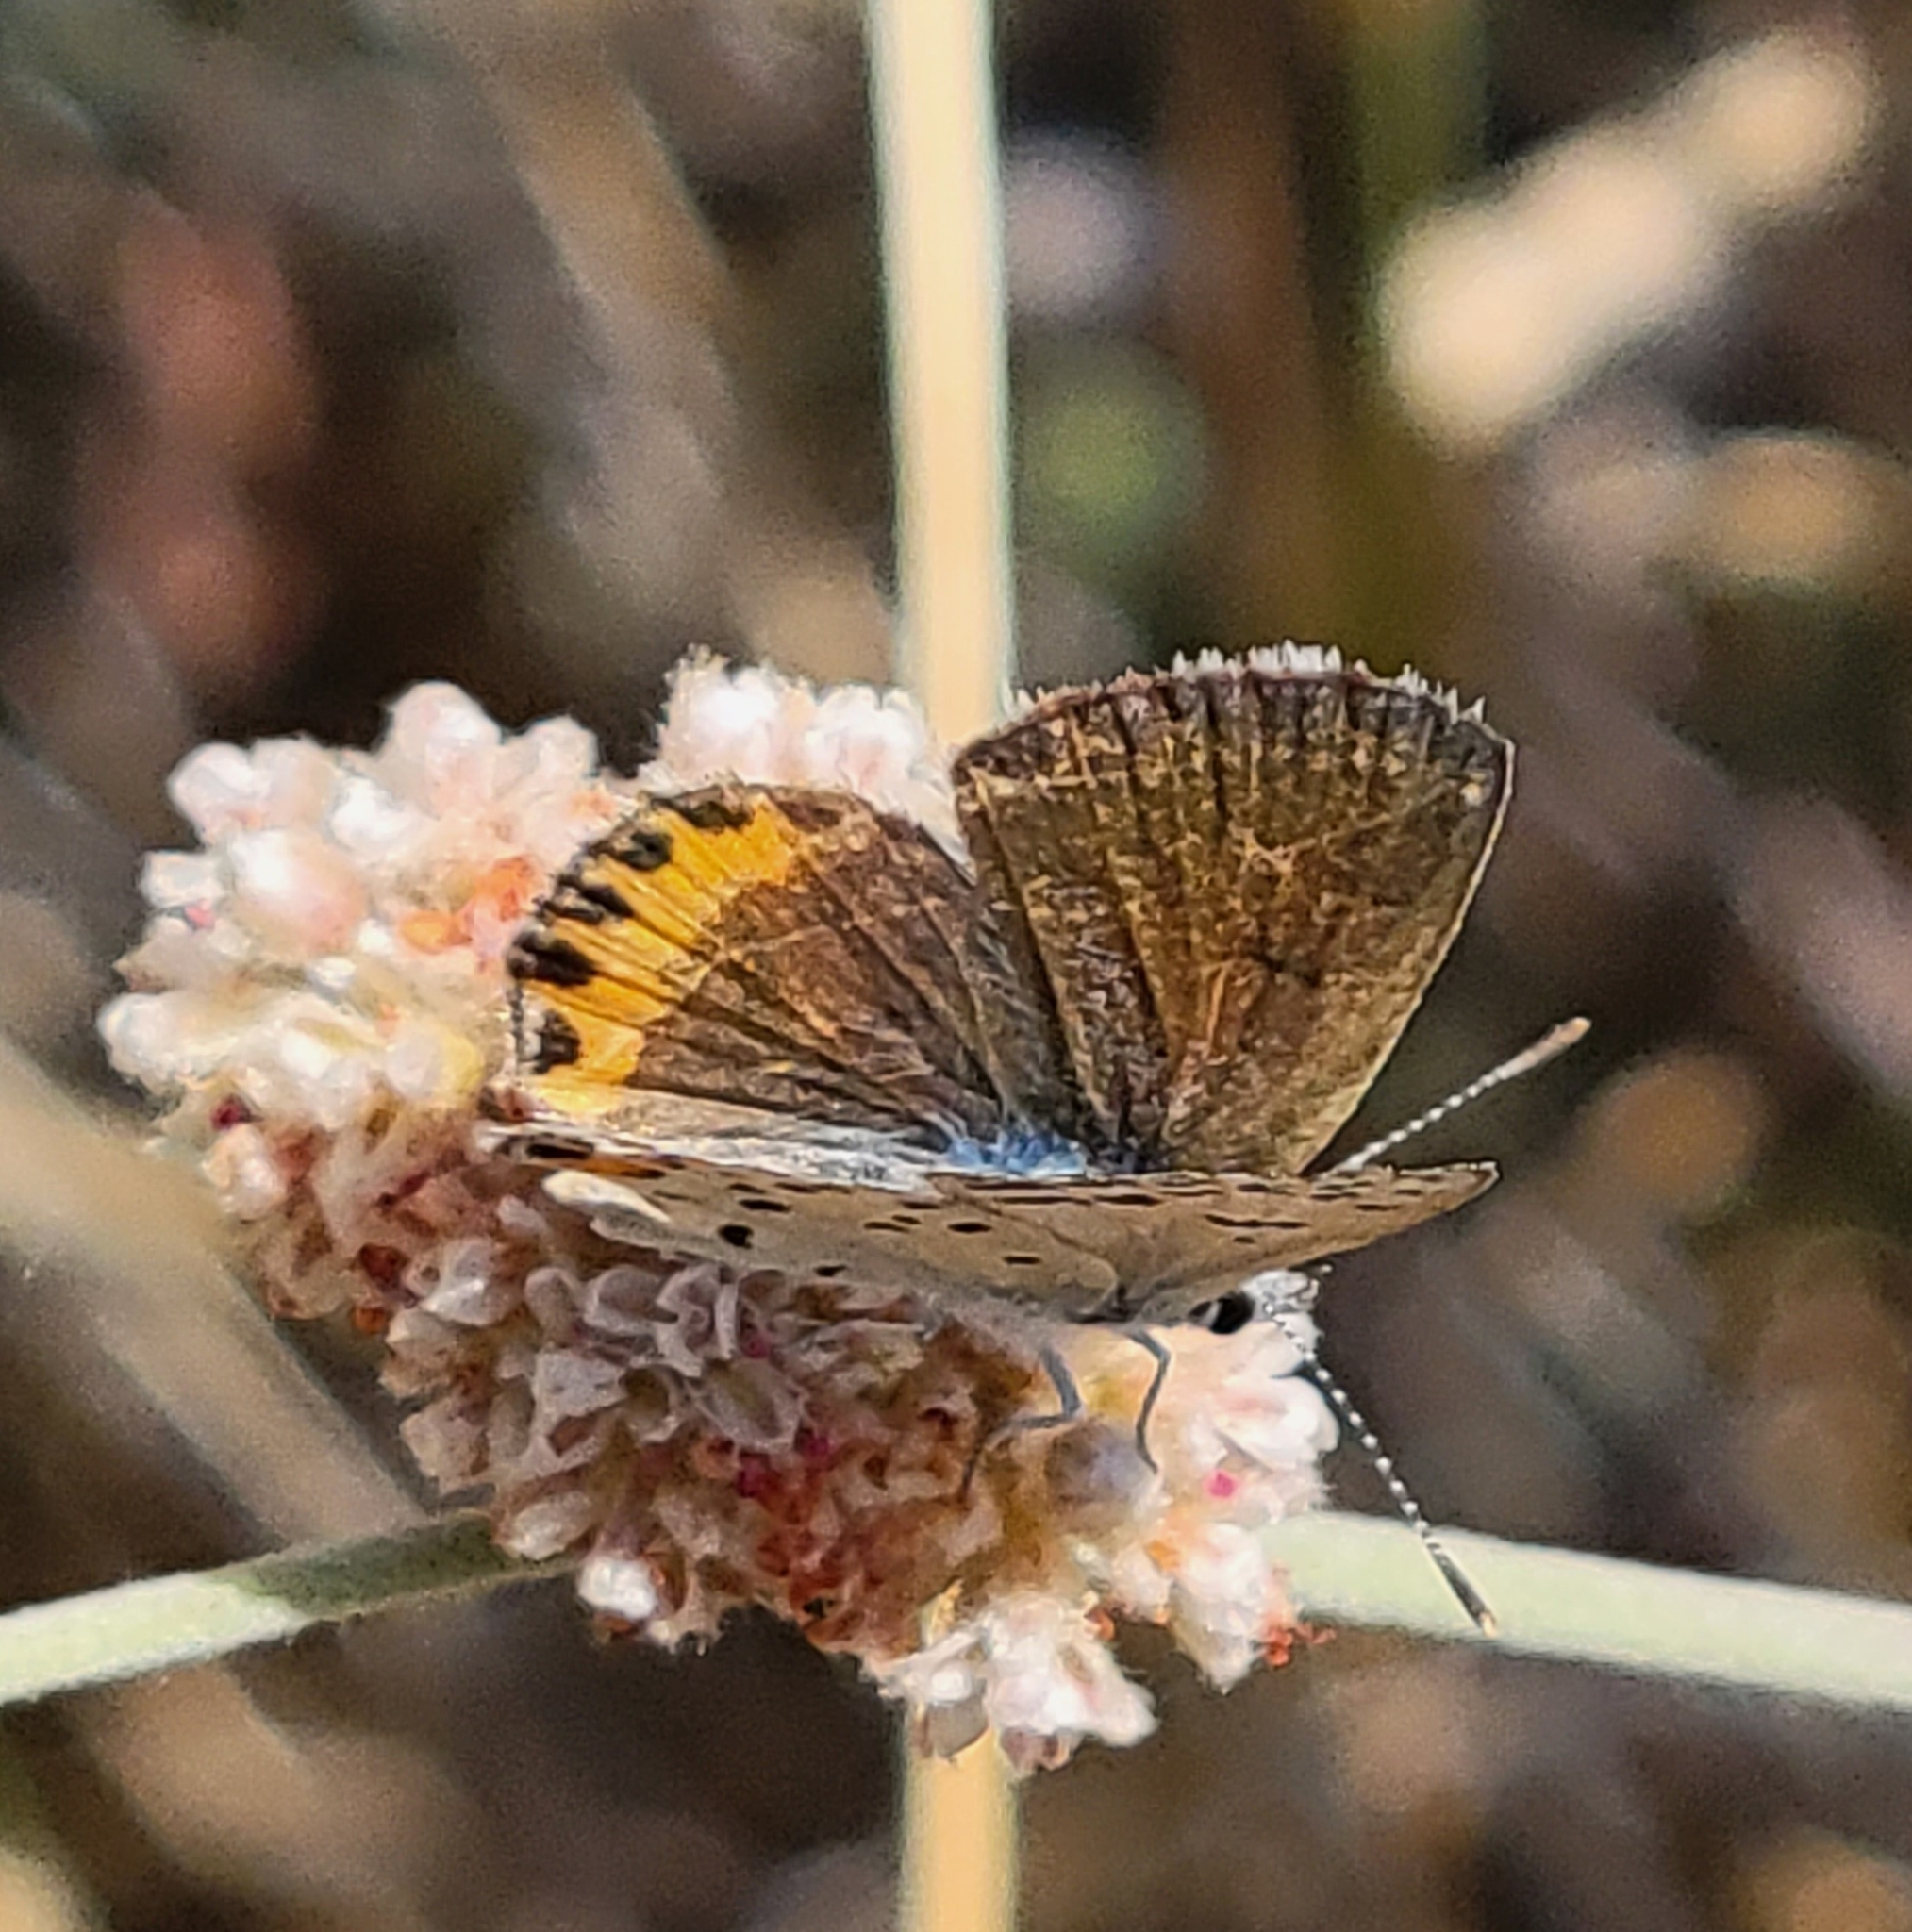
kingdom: Animalia
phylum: Arthropoda
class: Insecta
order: Lepidoptera
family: Lycaenidae
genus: Icaricia
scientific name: Icaricia acmon
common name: Acmon blue
